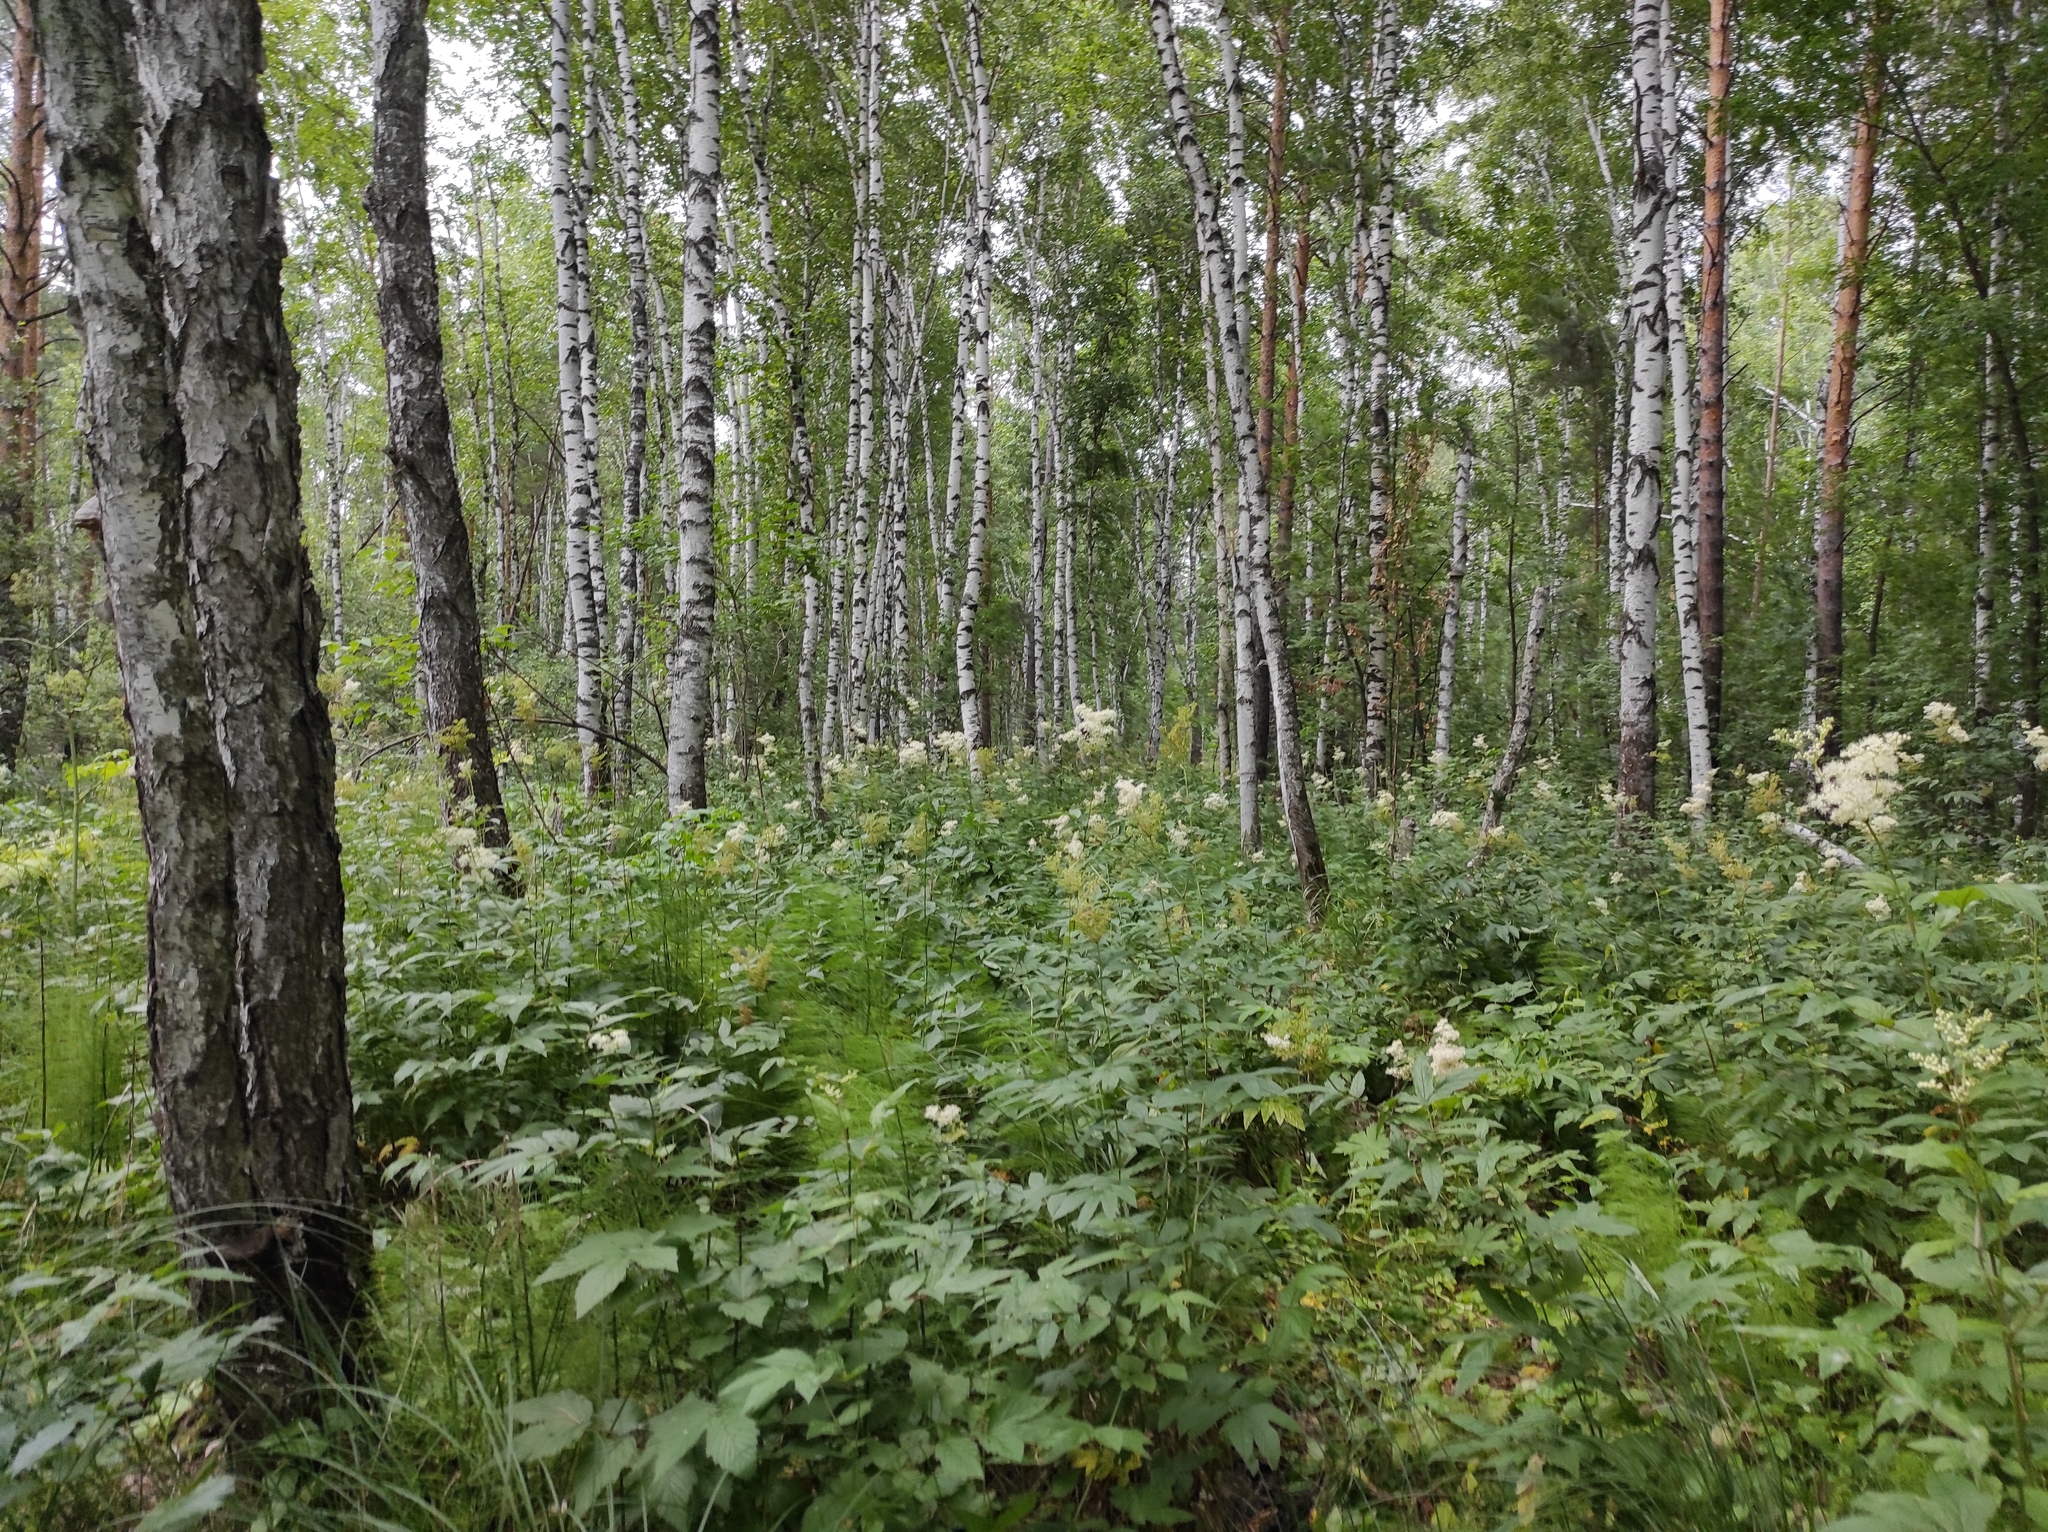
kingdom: Plantae
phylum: Tracheophyta
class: Magnoliopsida
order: Fagales
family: Betulaceae
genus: Betula
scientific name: Betula pubescens
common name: Downy birch
